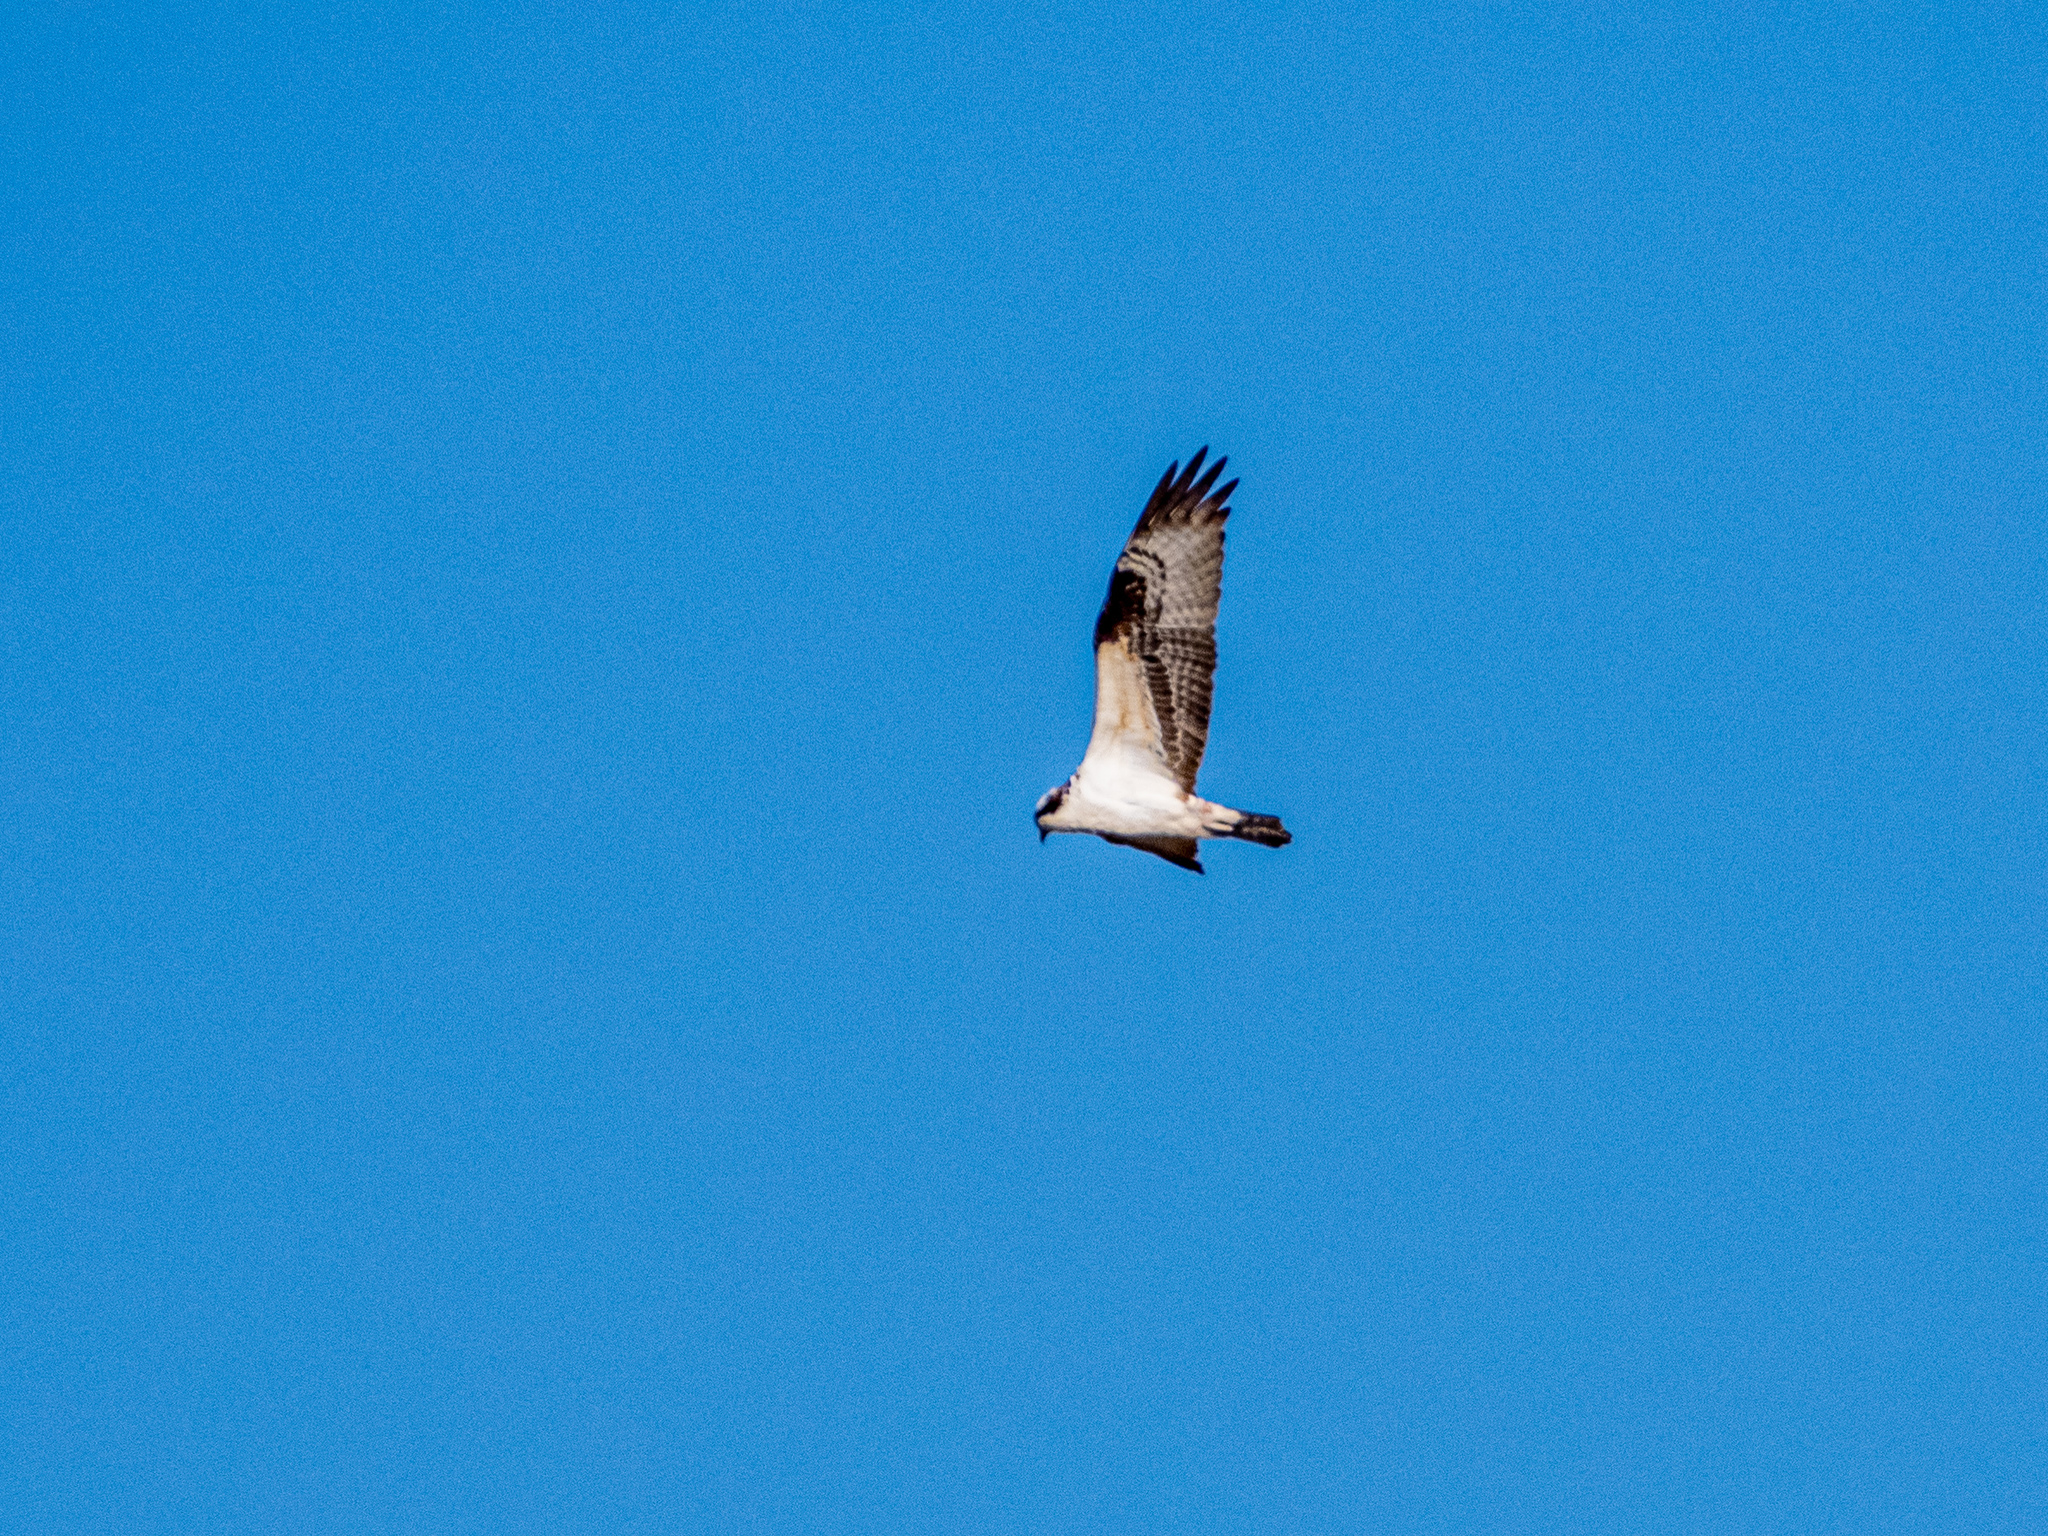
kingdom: Animalia
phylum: Chordata
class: Aves
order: Accipitriformes
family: Pandionidae
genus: Pandion
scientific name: Pandion haliaetus
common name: Osprey
